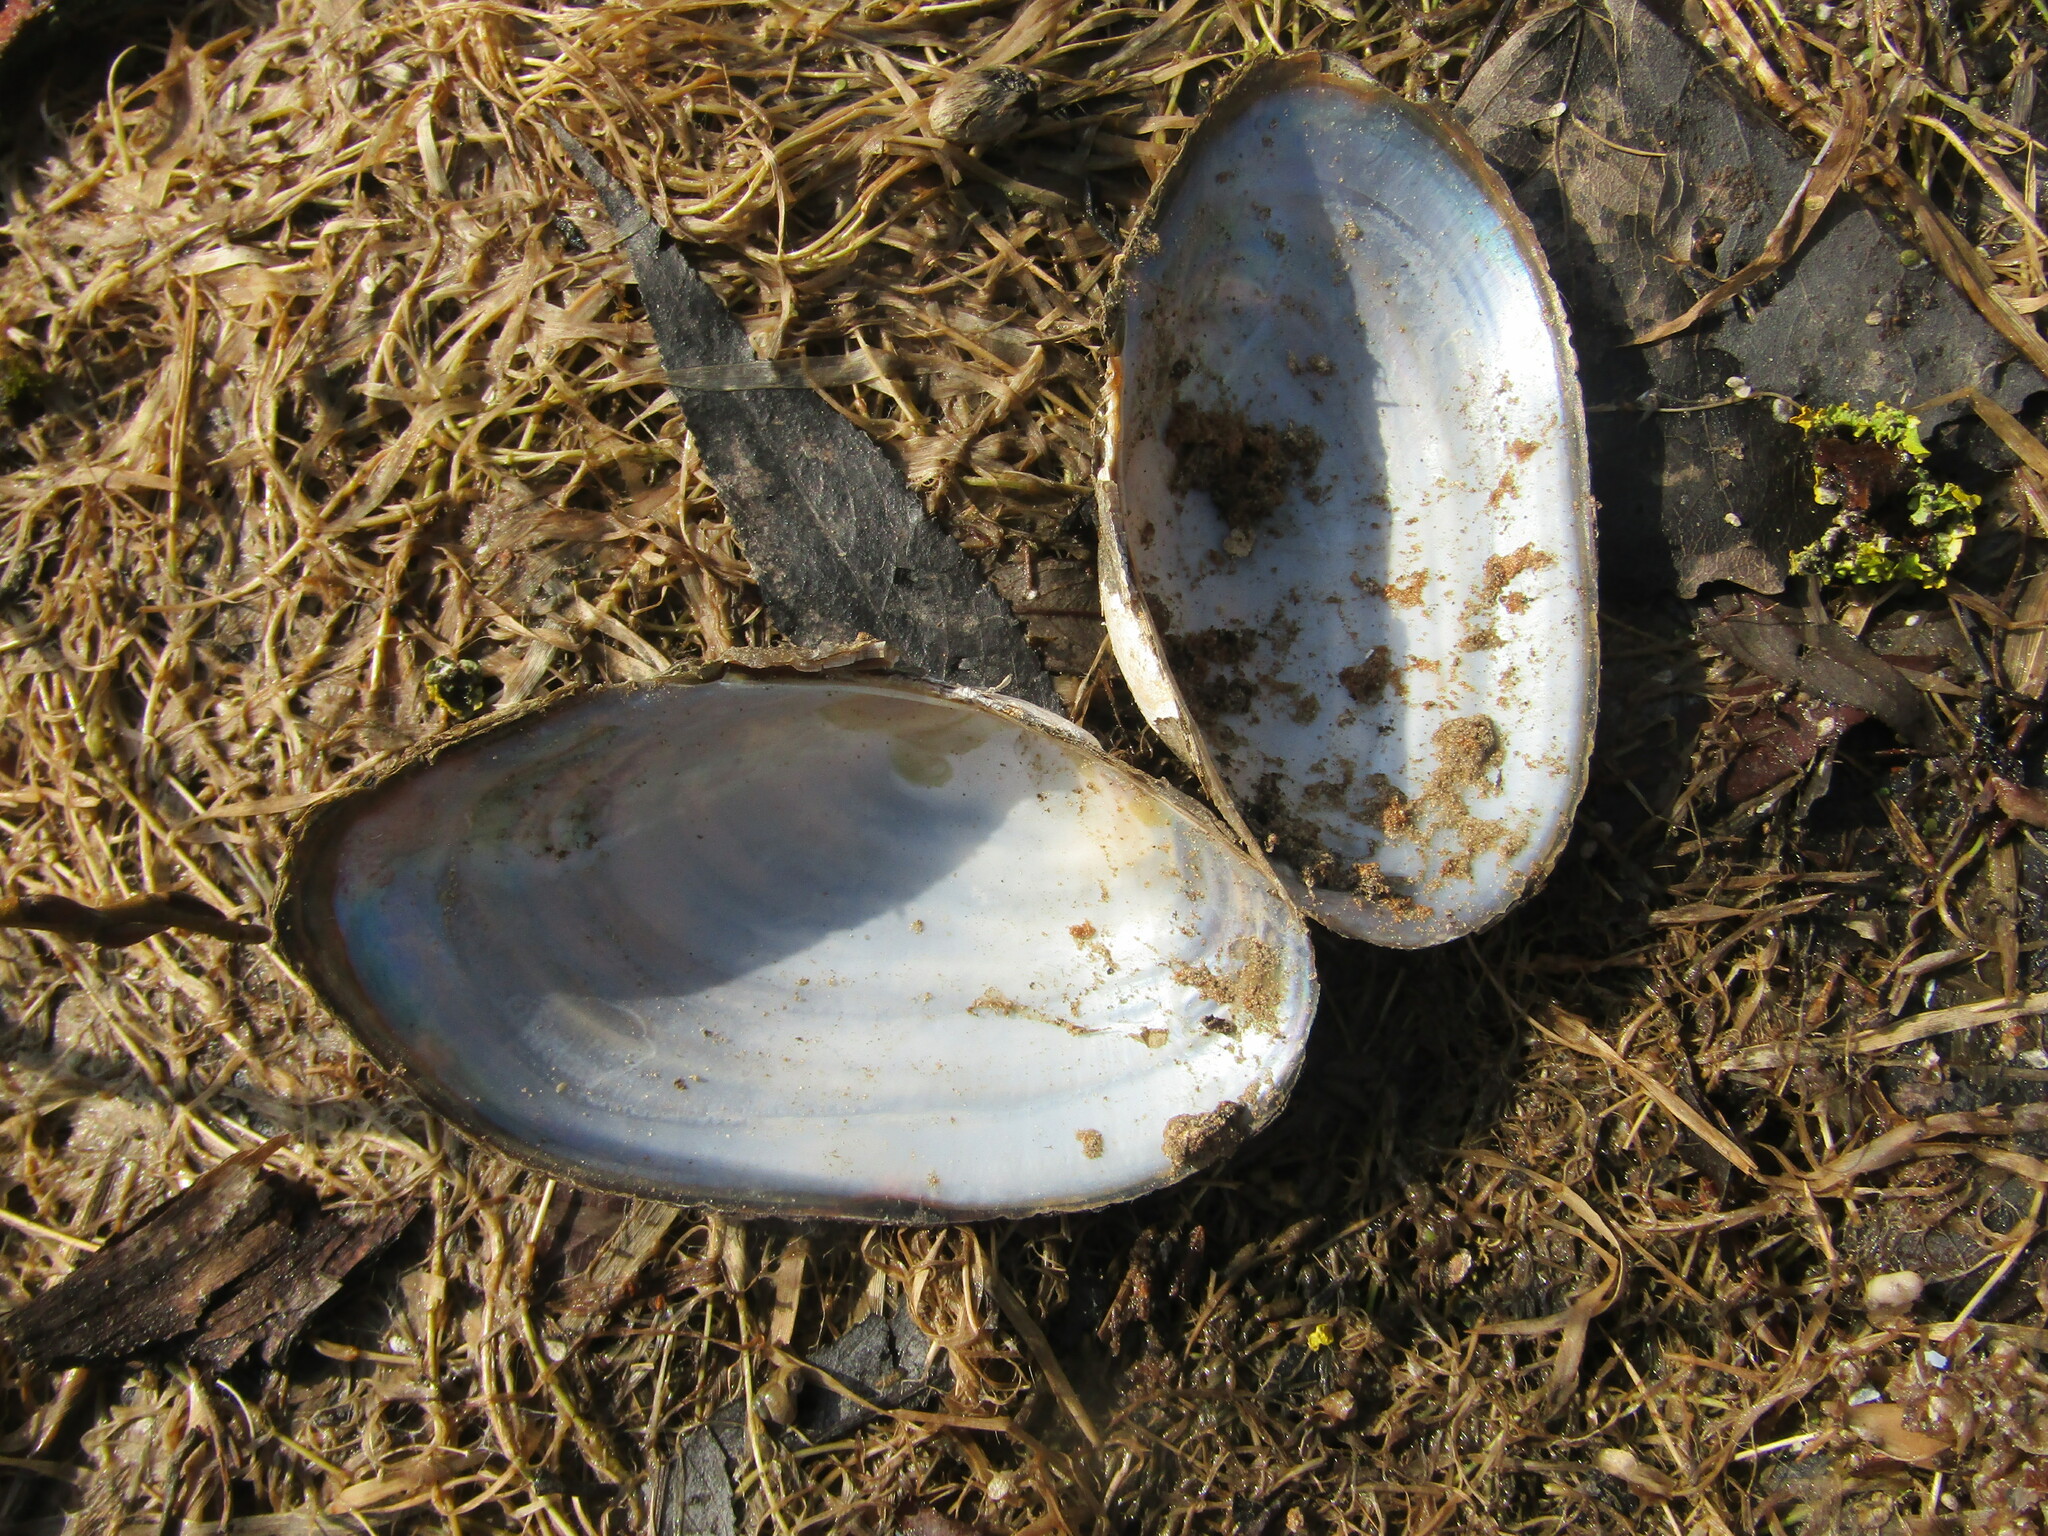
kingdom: Animalia
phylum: Mollusca
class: Bivalvia
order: Unionida
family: Unionidae
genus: Anodonta
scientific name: Anodonta anatina
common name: Duck mussel
